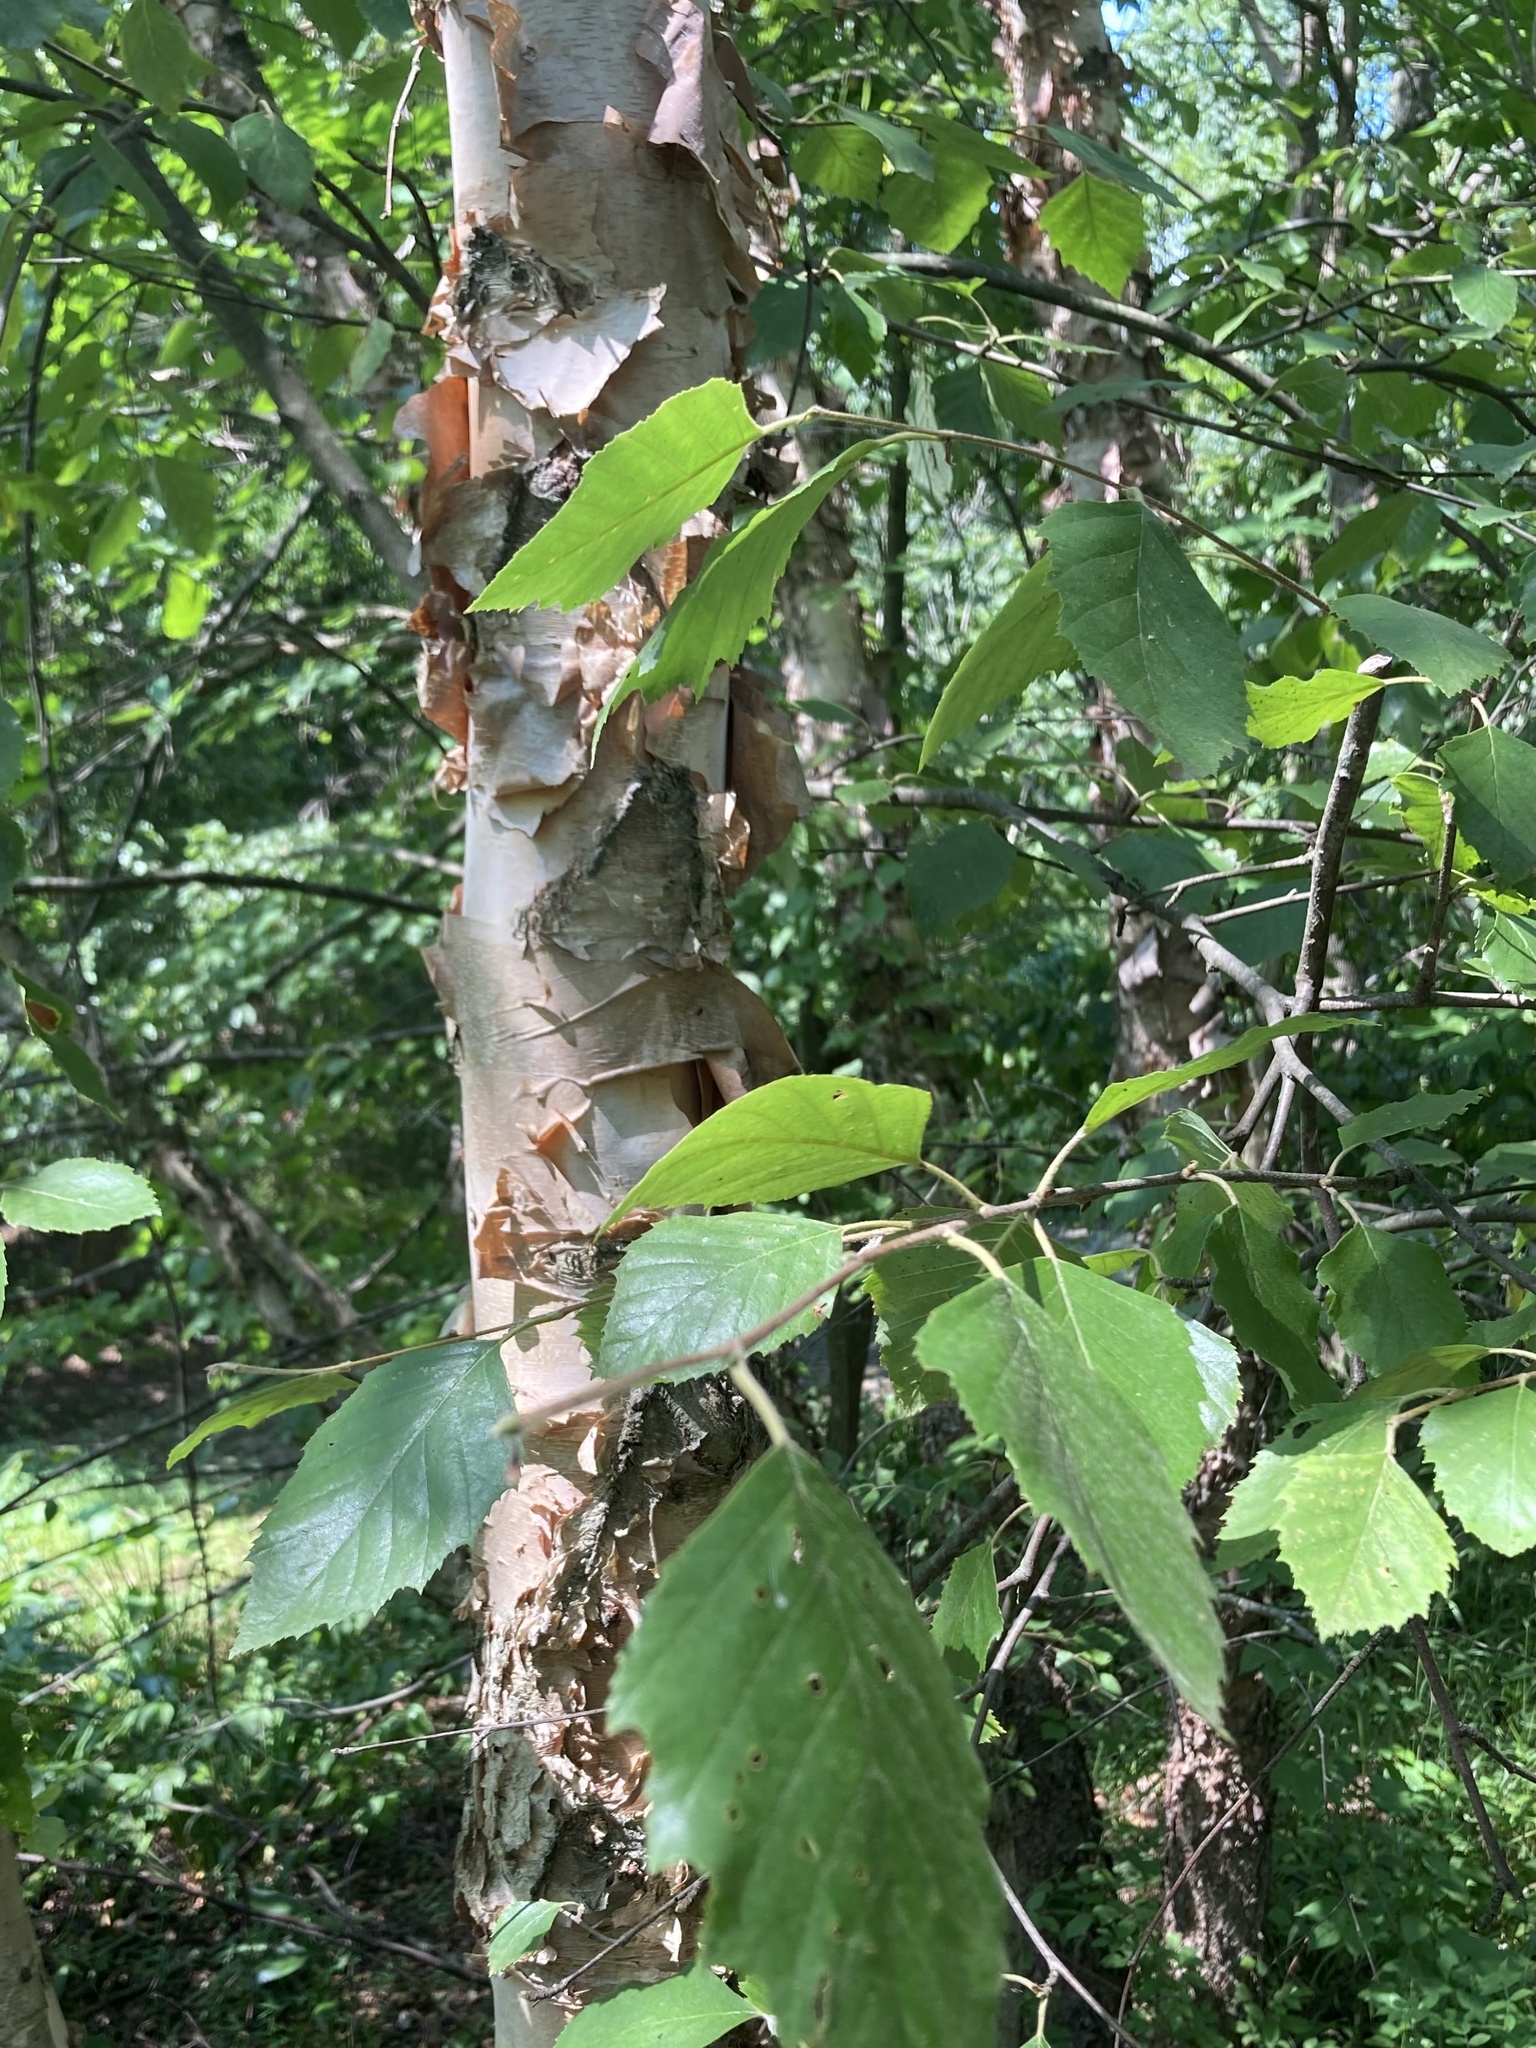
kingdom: Plantae
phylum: Tracheophyta
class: Magnoliopsida
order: Fagales
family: Betulaceae
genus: Betula
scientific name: Betula nigra
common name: Black birch
